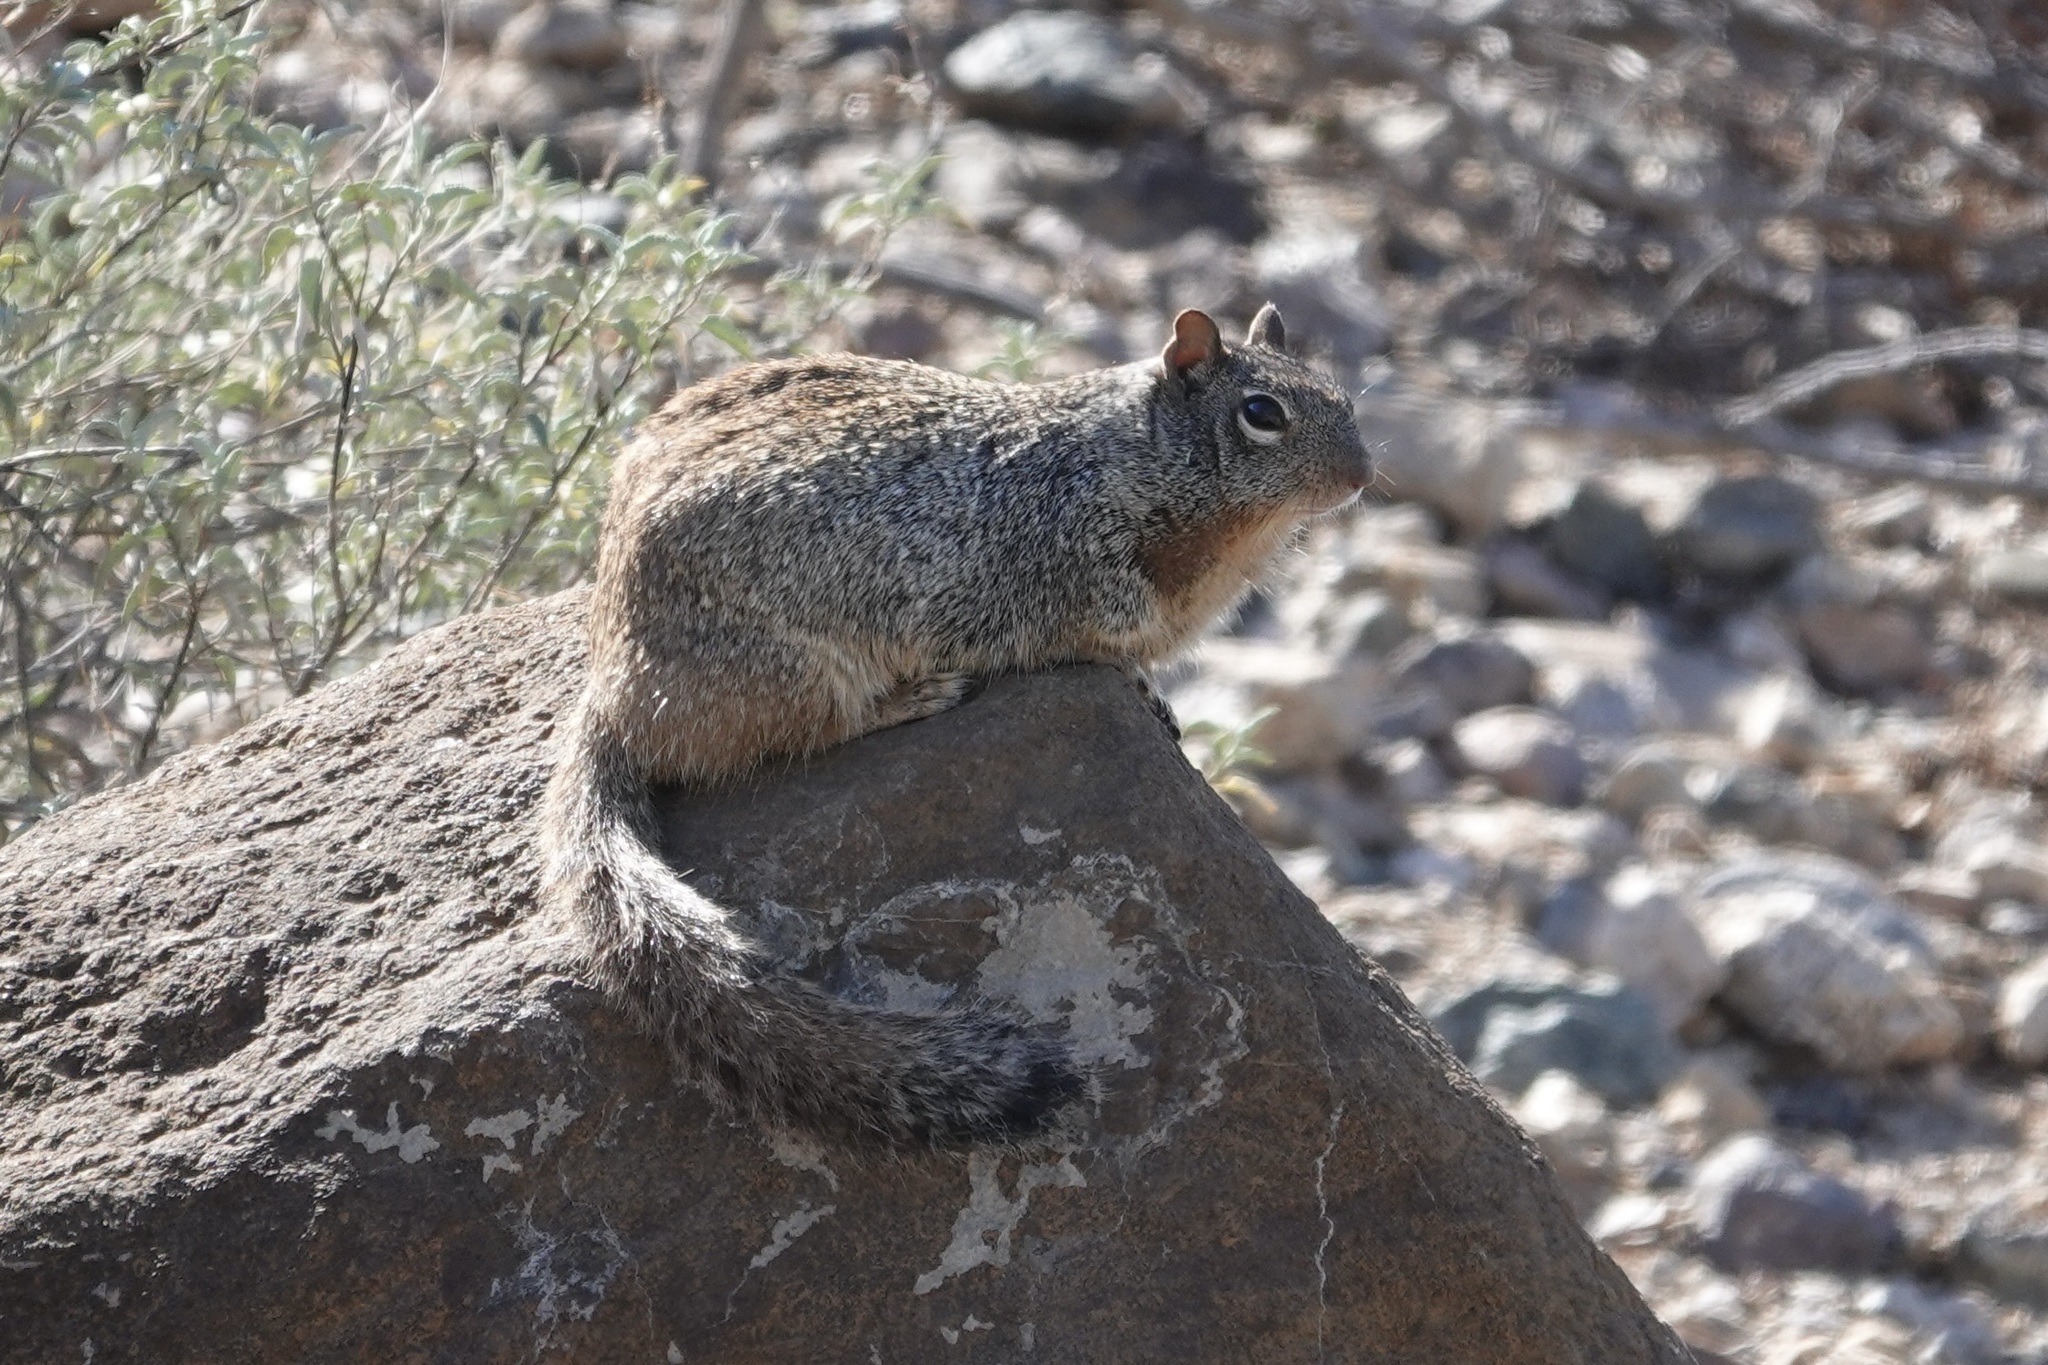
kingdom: Animalia
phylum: Chordata
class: Mammalia
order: Rodentia
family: Sciuridae
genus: Otospermophilus
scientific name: Otospermophilus variegatus
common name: Rock squirrel
